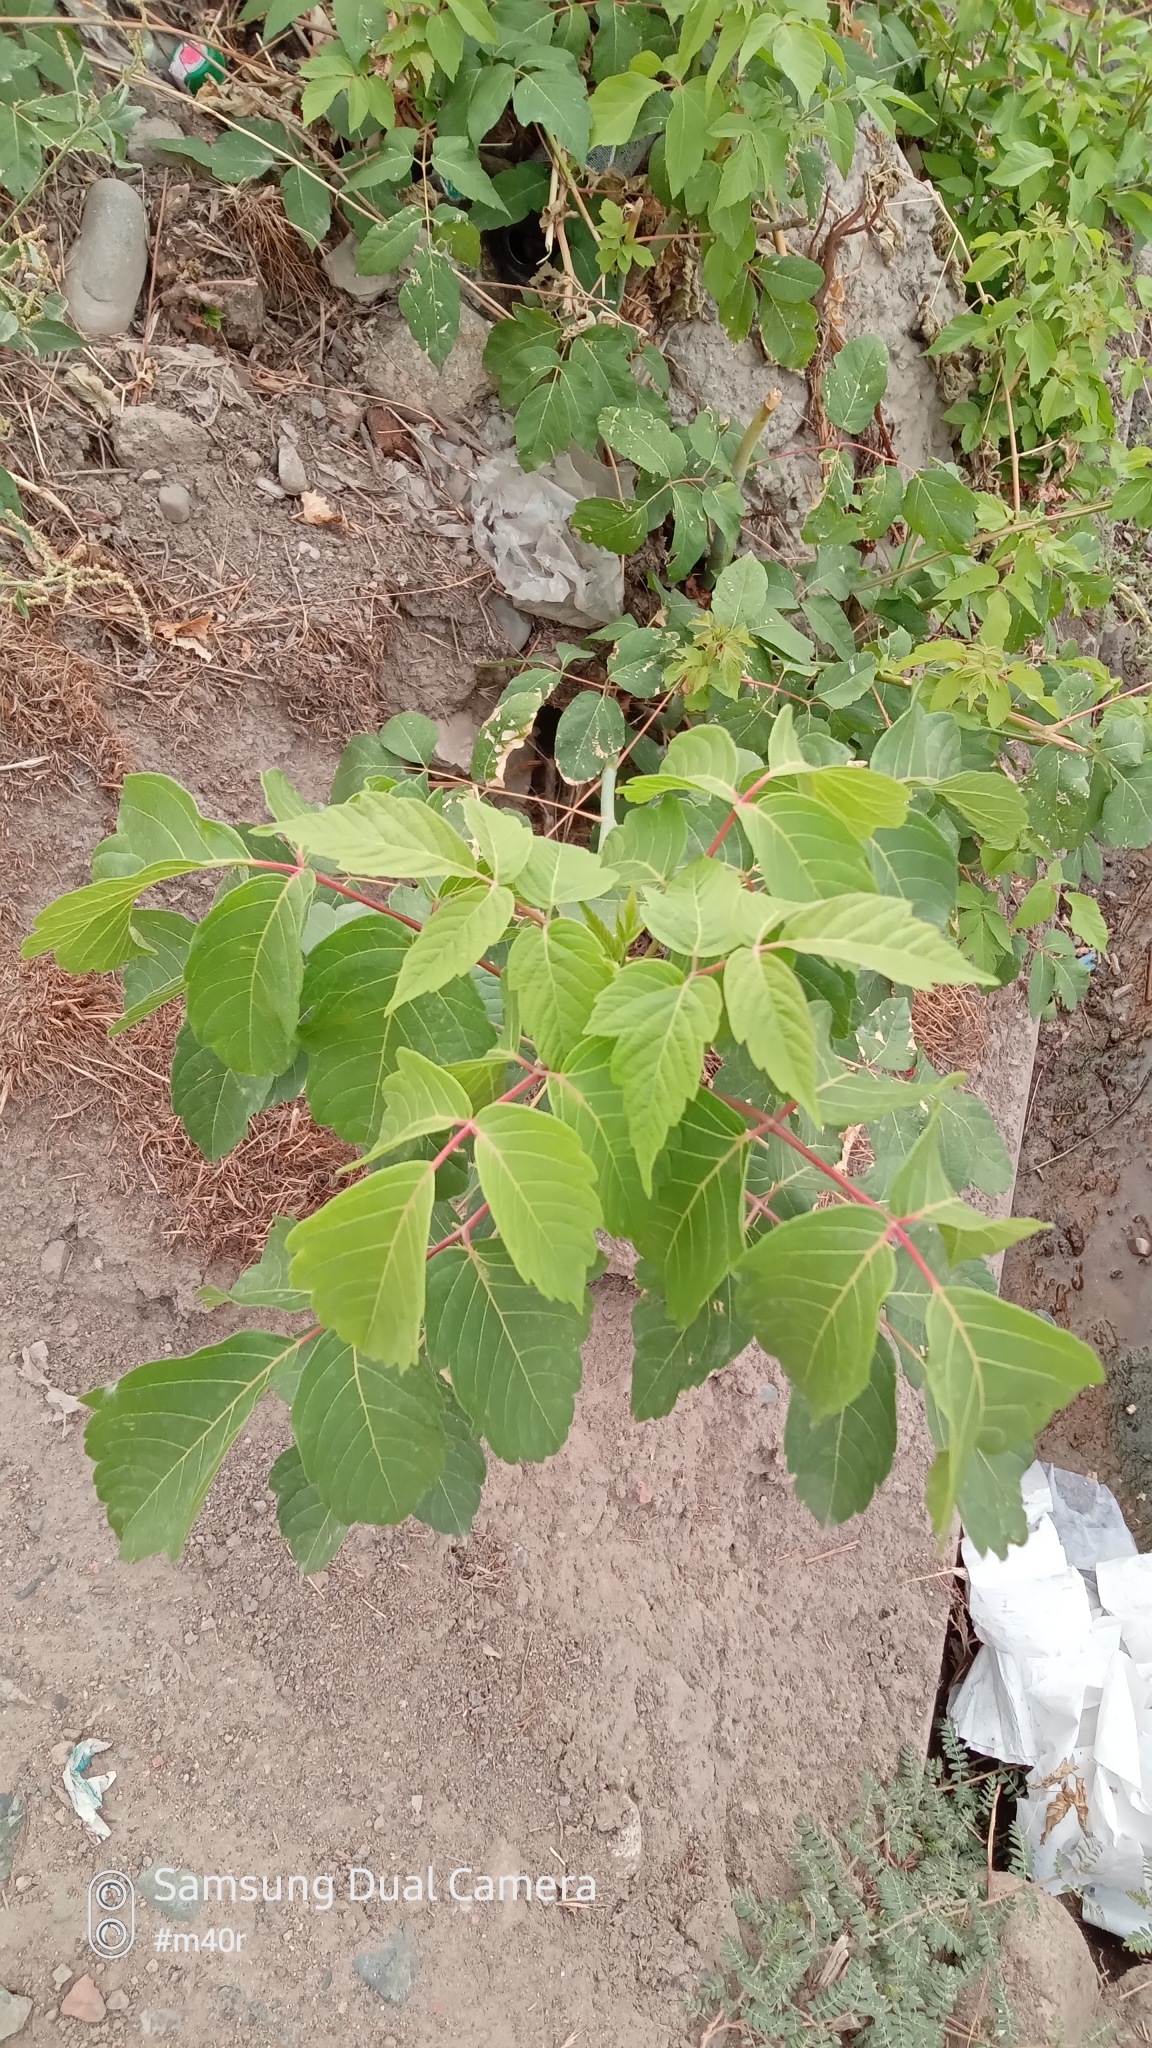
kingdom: Plantae
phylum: Tracheophyta
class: Magnoliopsida
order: Sapindales
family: Sapindaceae
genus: Acer
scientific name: Acer negundo
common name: Ashleaf maple
